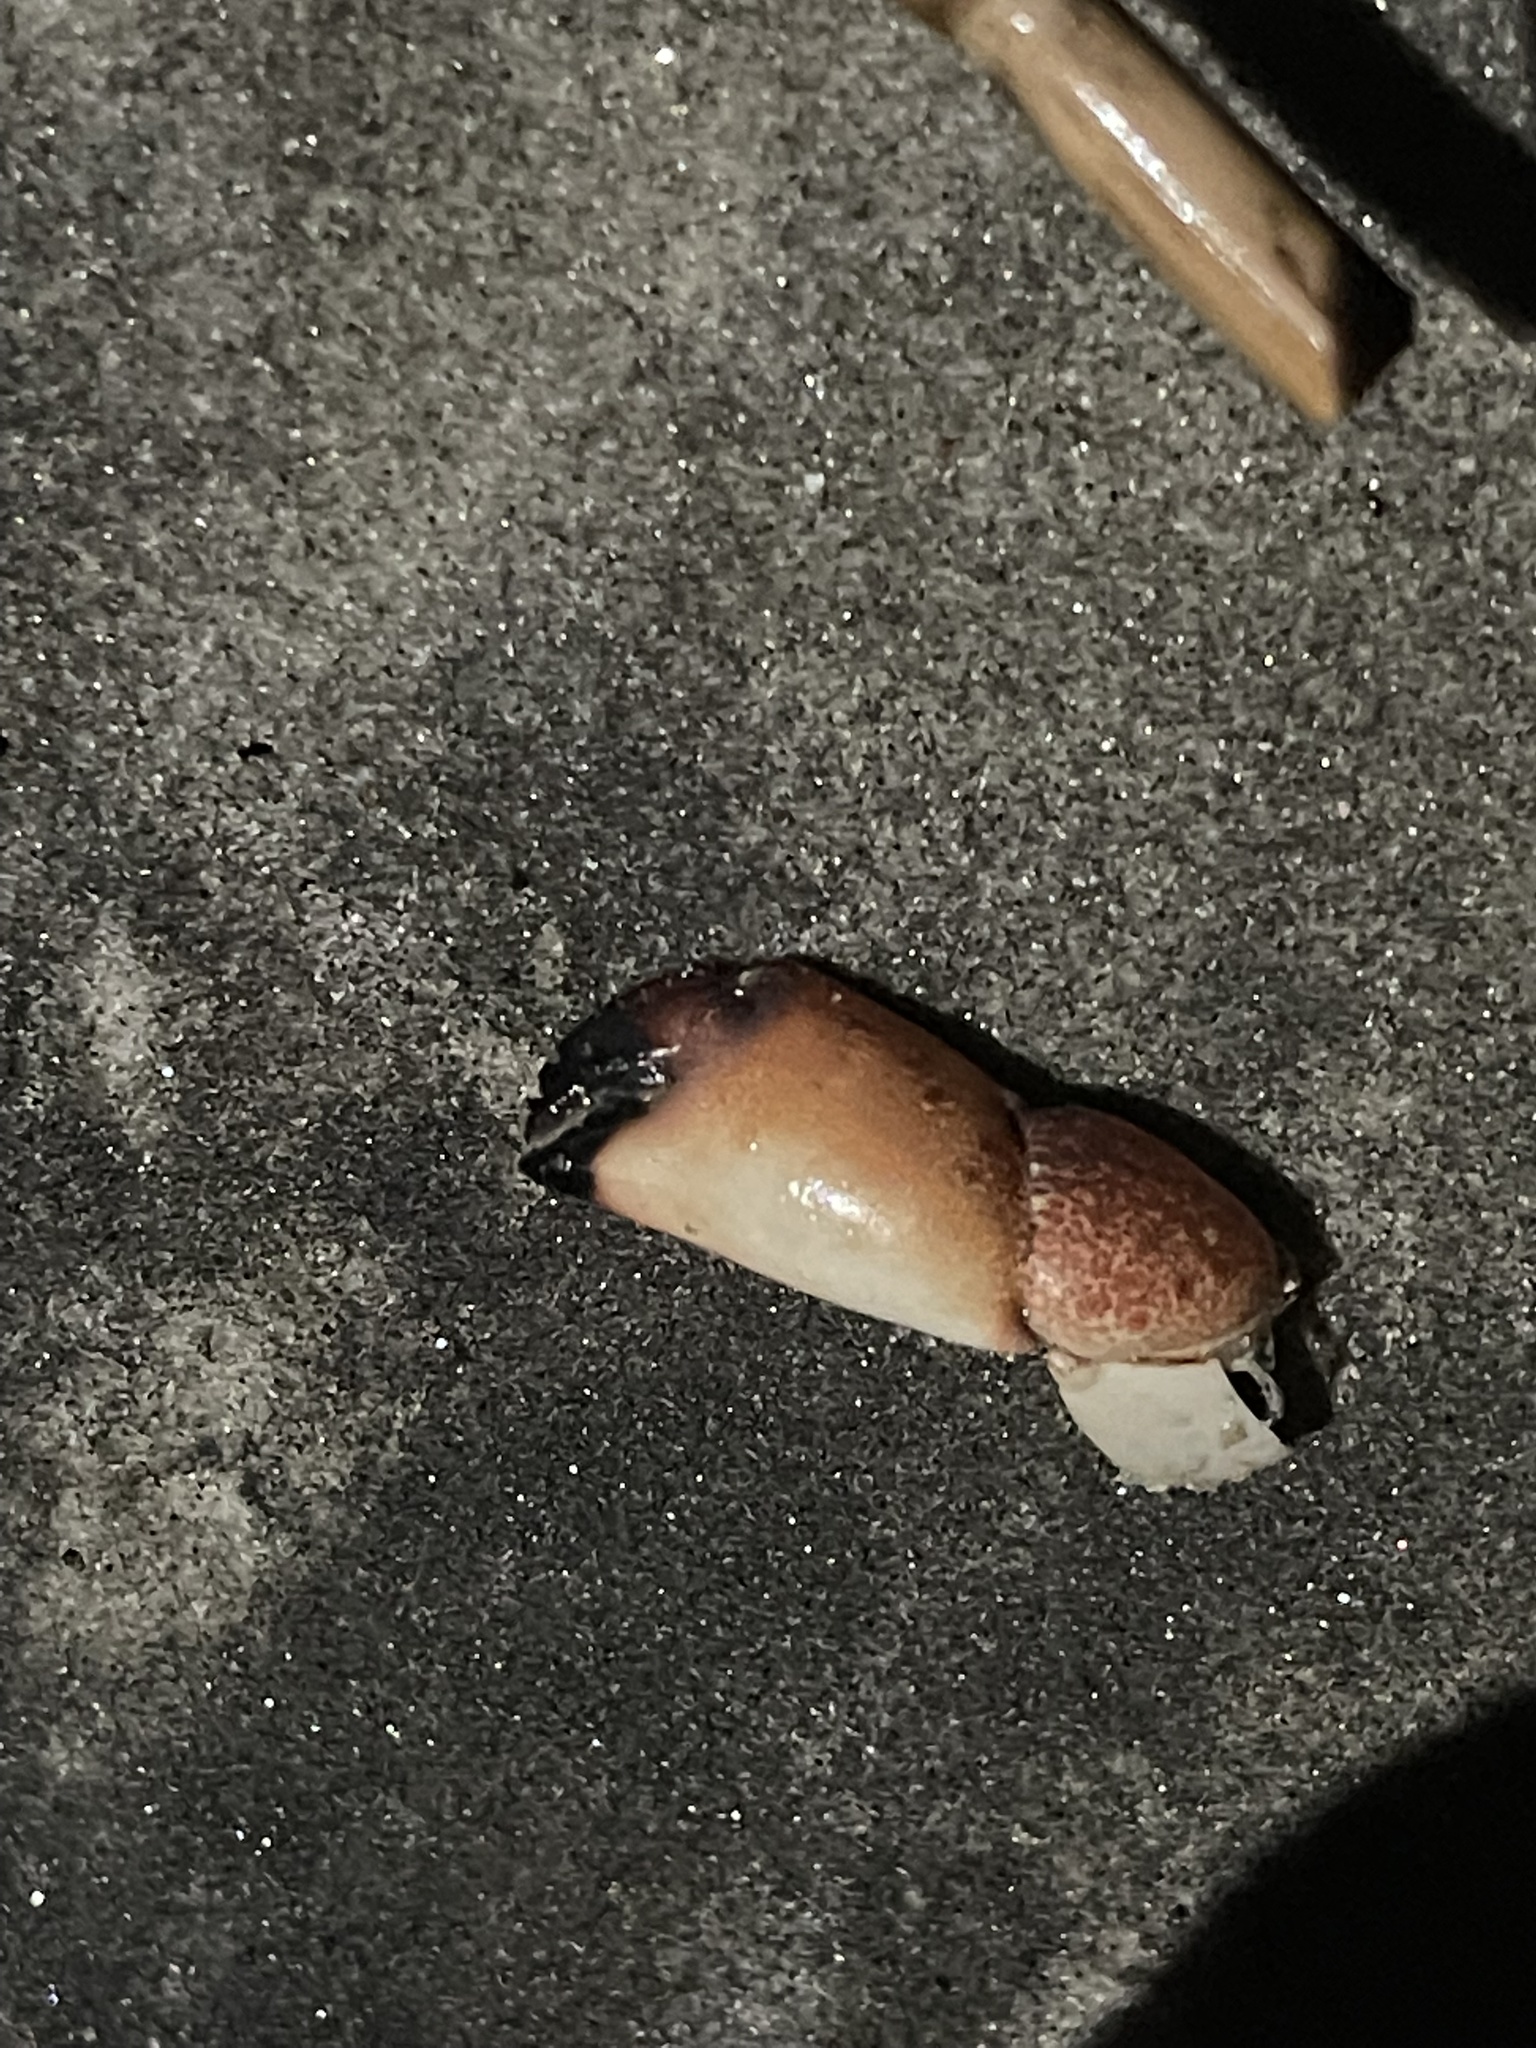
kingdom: Animalia
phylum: Arthropoda
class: Malacostraca
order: Decapoda
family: Menippidae
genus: Menippe
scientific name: Menippe mercenaria
